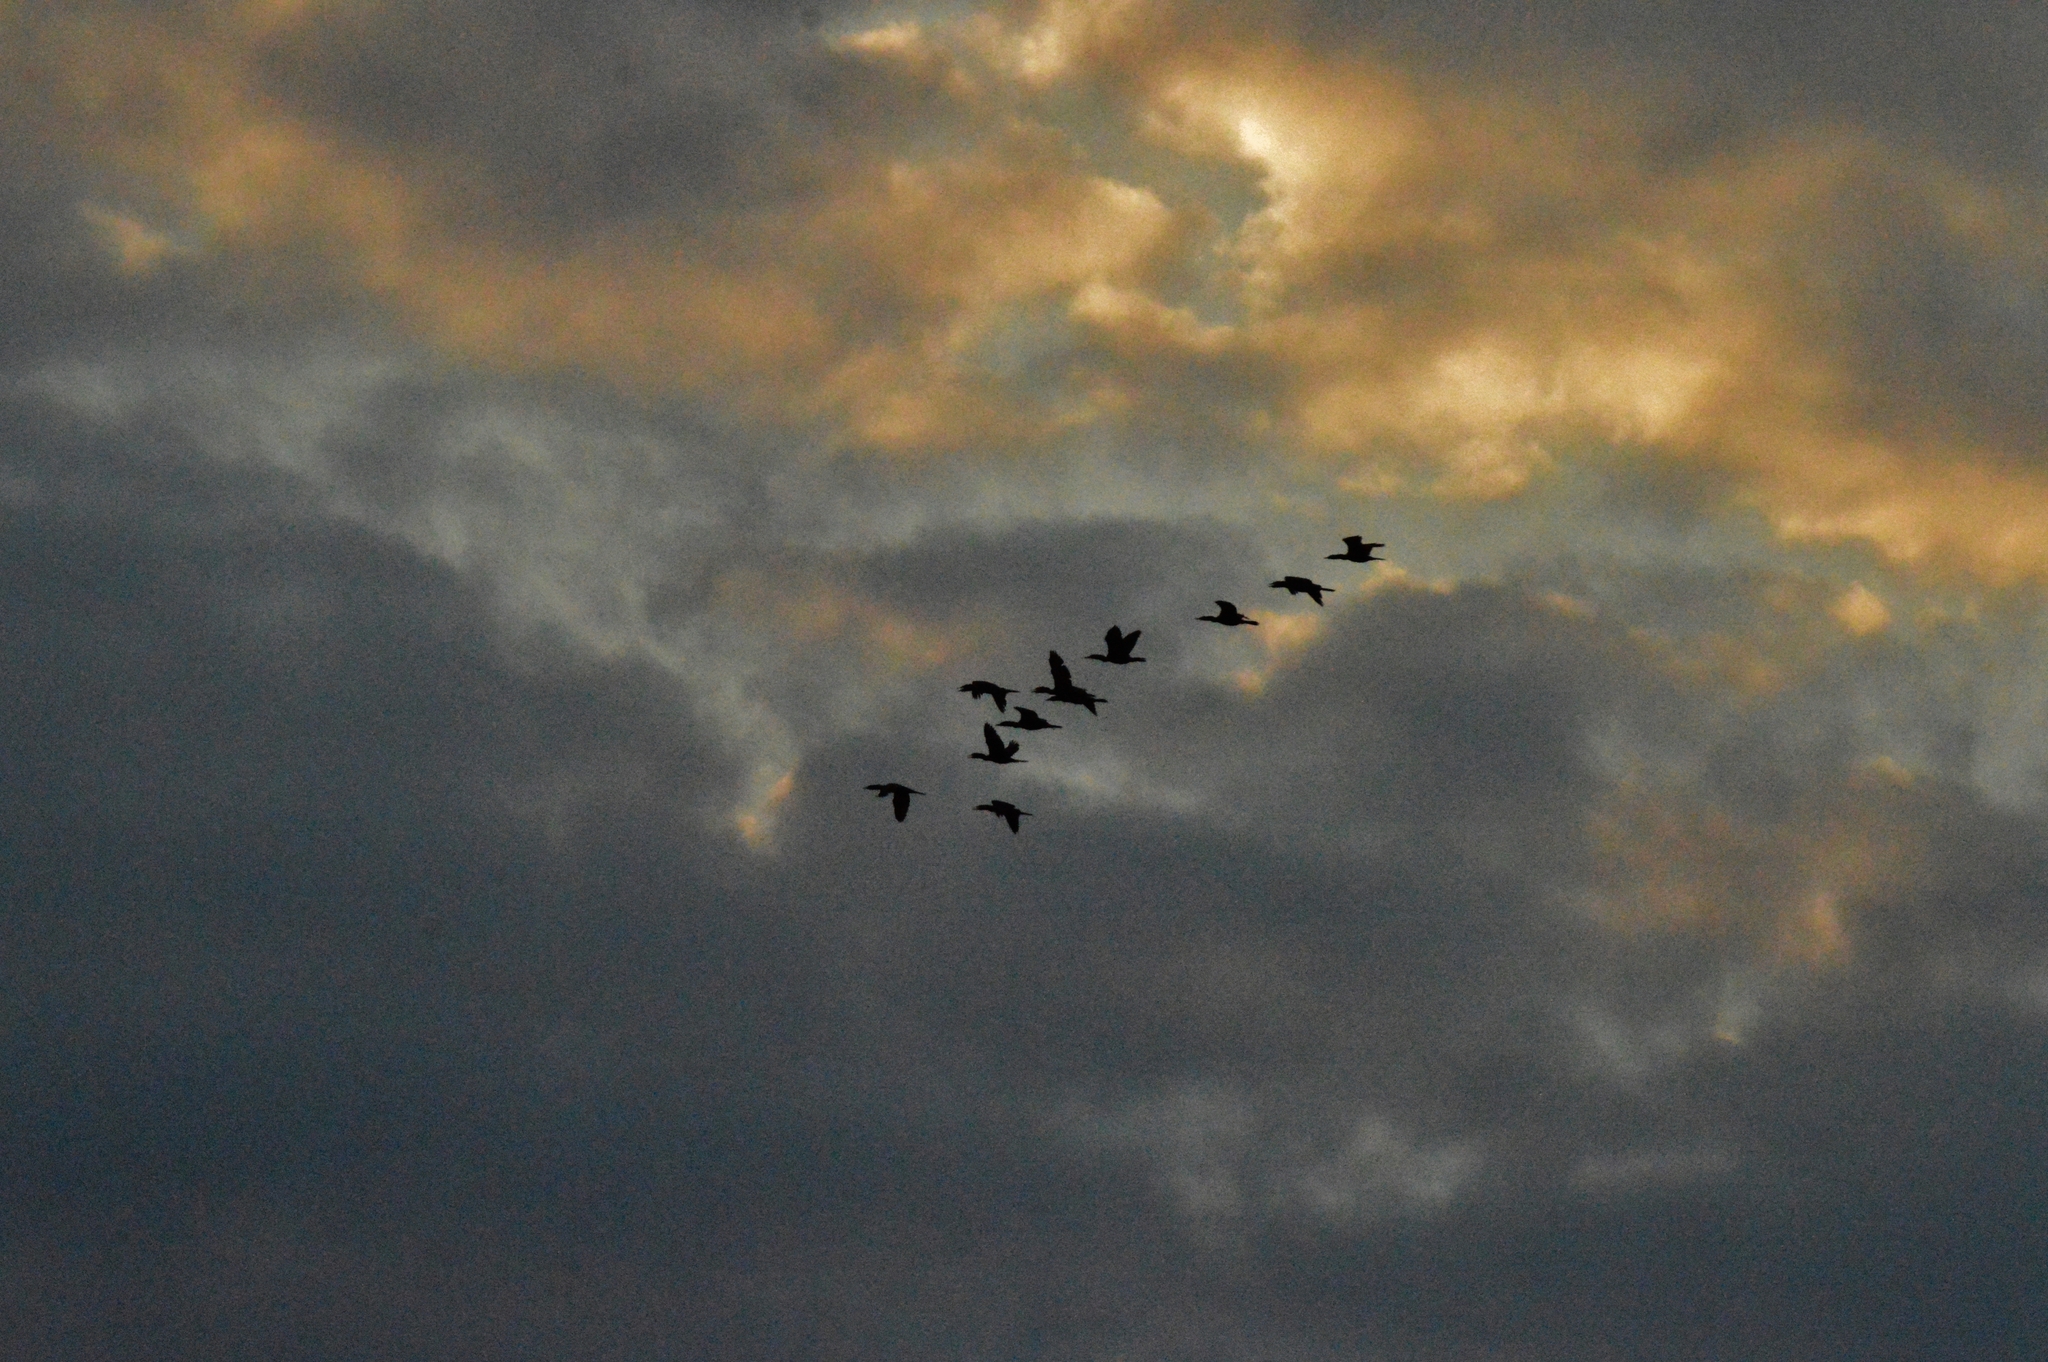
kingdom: Animalia
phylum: Chordata
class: Aves
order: Suliformes
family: Phalacrocoracidae
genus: Phalacrocorax
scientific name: Phalacrocorax brasilianus
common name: Neotropic cormorant
